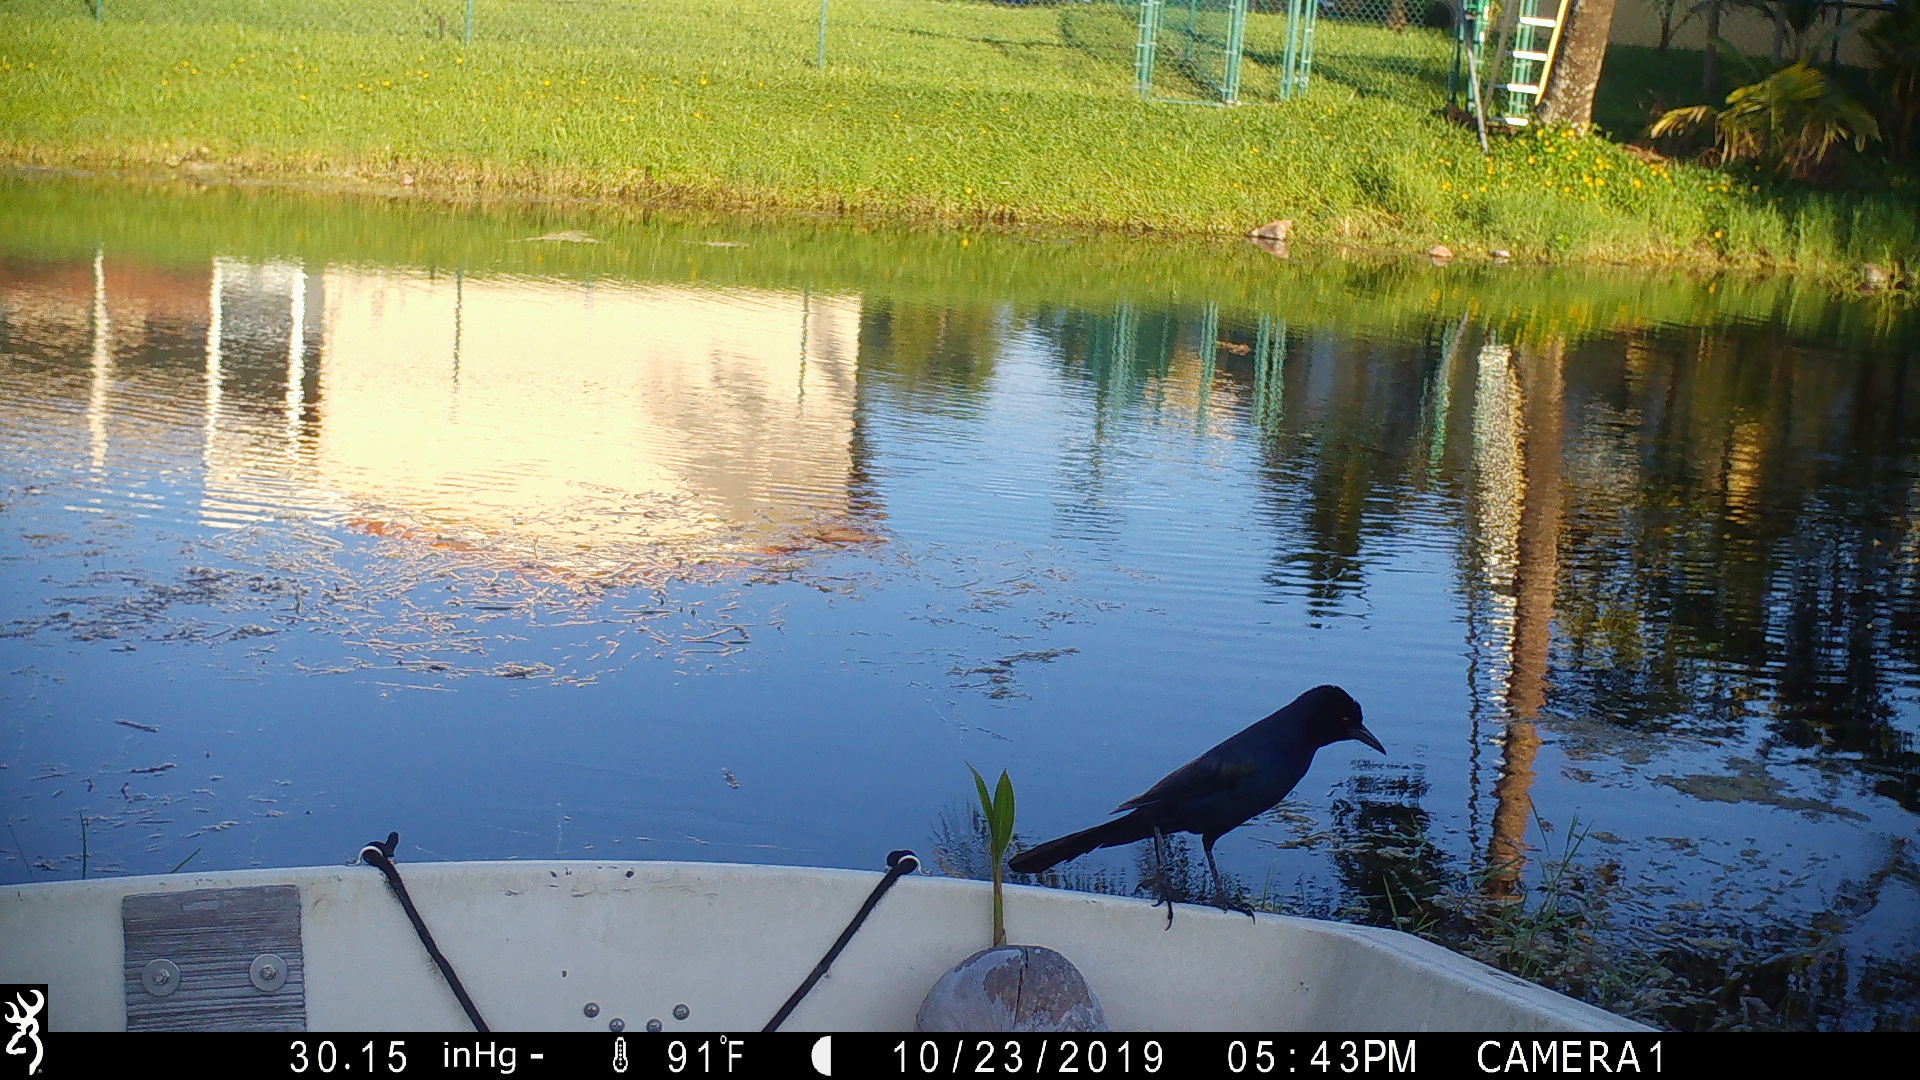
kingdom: Animalia
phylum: Chordata
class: Aves
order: Passeriformes
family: Icteridae
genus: Quiscalus
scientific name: Quiscalus major
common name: Boat-tailed grackle
